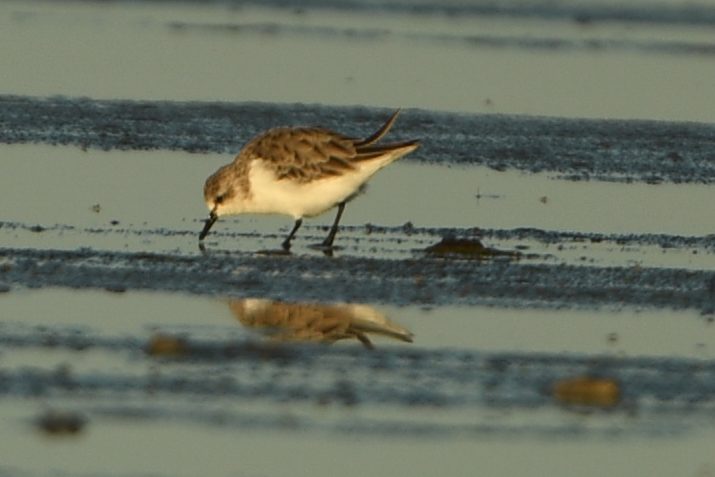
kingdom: Animalia
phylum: Chordata
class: Aves
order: Charadriiformes
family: Scolopacidae
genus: Calidris
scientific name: Calidris ruficollis
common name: Red-necked stint
